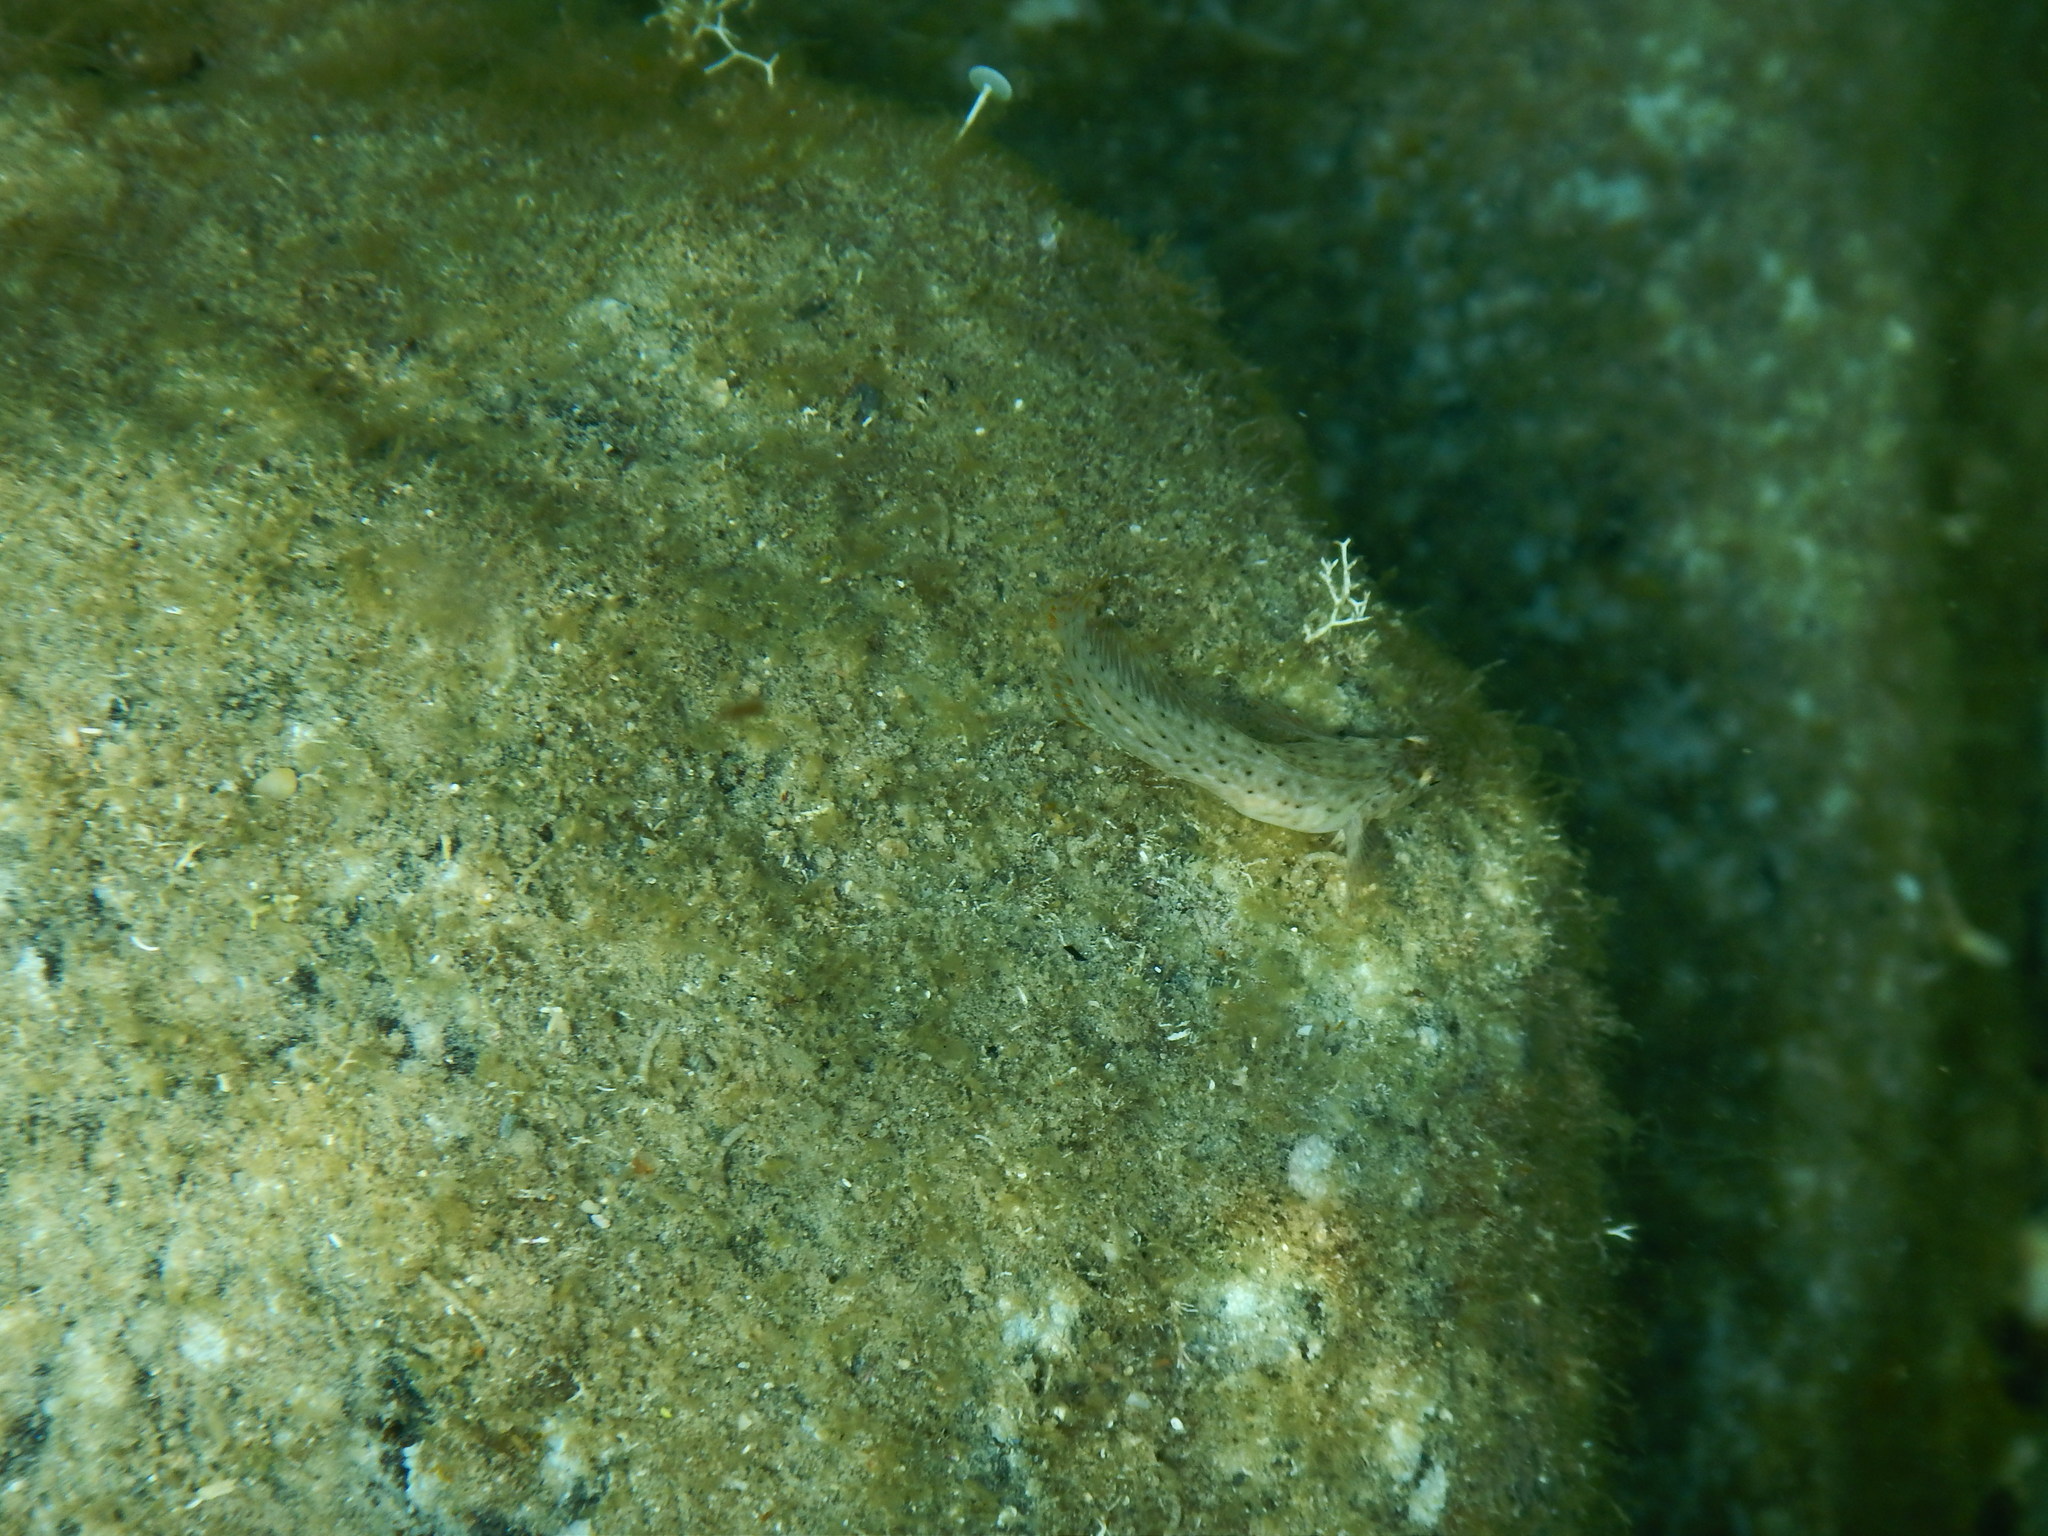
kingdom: Animalia
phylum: Chordata
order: Perciformes
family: Blenniidae
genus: Parablennius
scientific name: Parablennius sanguinolentus
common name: Black sea blenny
